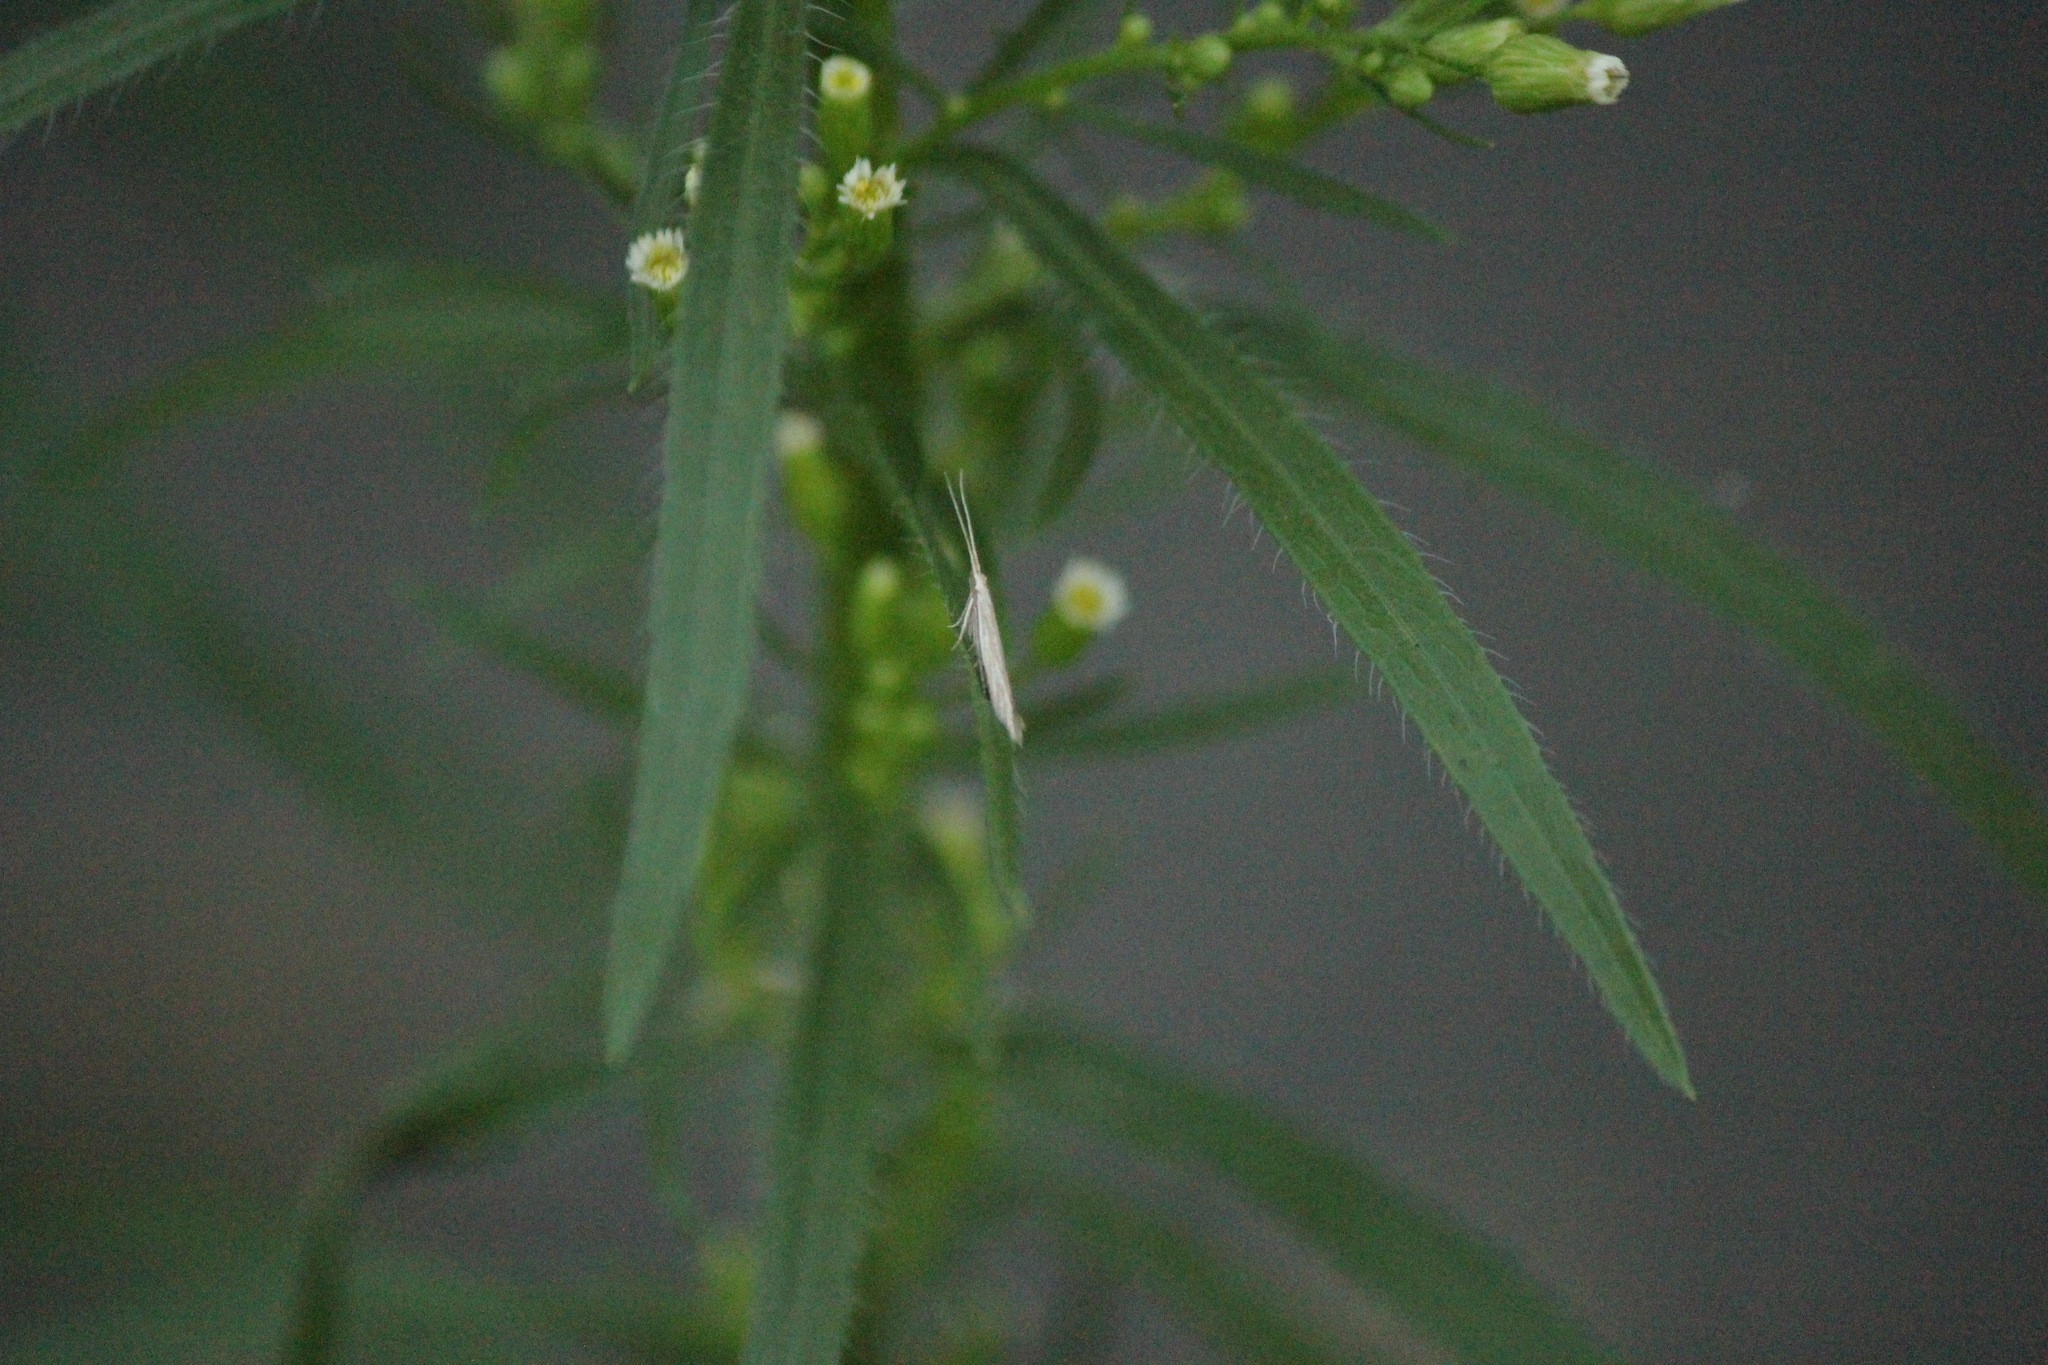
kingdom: Plantae
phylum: Tracheophyta
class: Magnoliopsida
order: Asterales
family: Asteraceae
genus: Erigeron
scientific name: Erigeron canadensis
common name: Canadian fleabane
